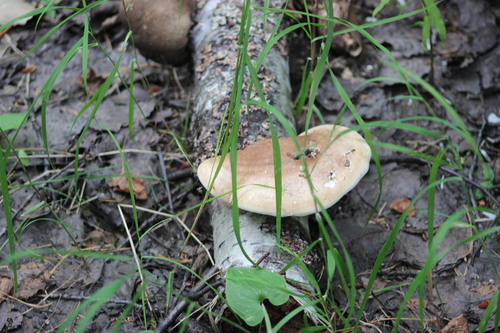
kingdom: Fungi
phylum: Basidiomycota
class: Agaricomycetes
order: Polyporales
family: Fomitopsidaceae
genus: Fomitopsis
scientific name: Fomitopsis betulina
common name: Birch polypore
